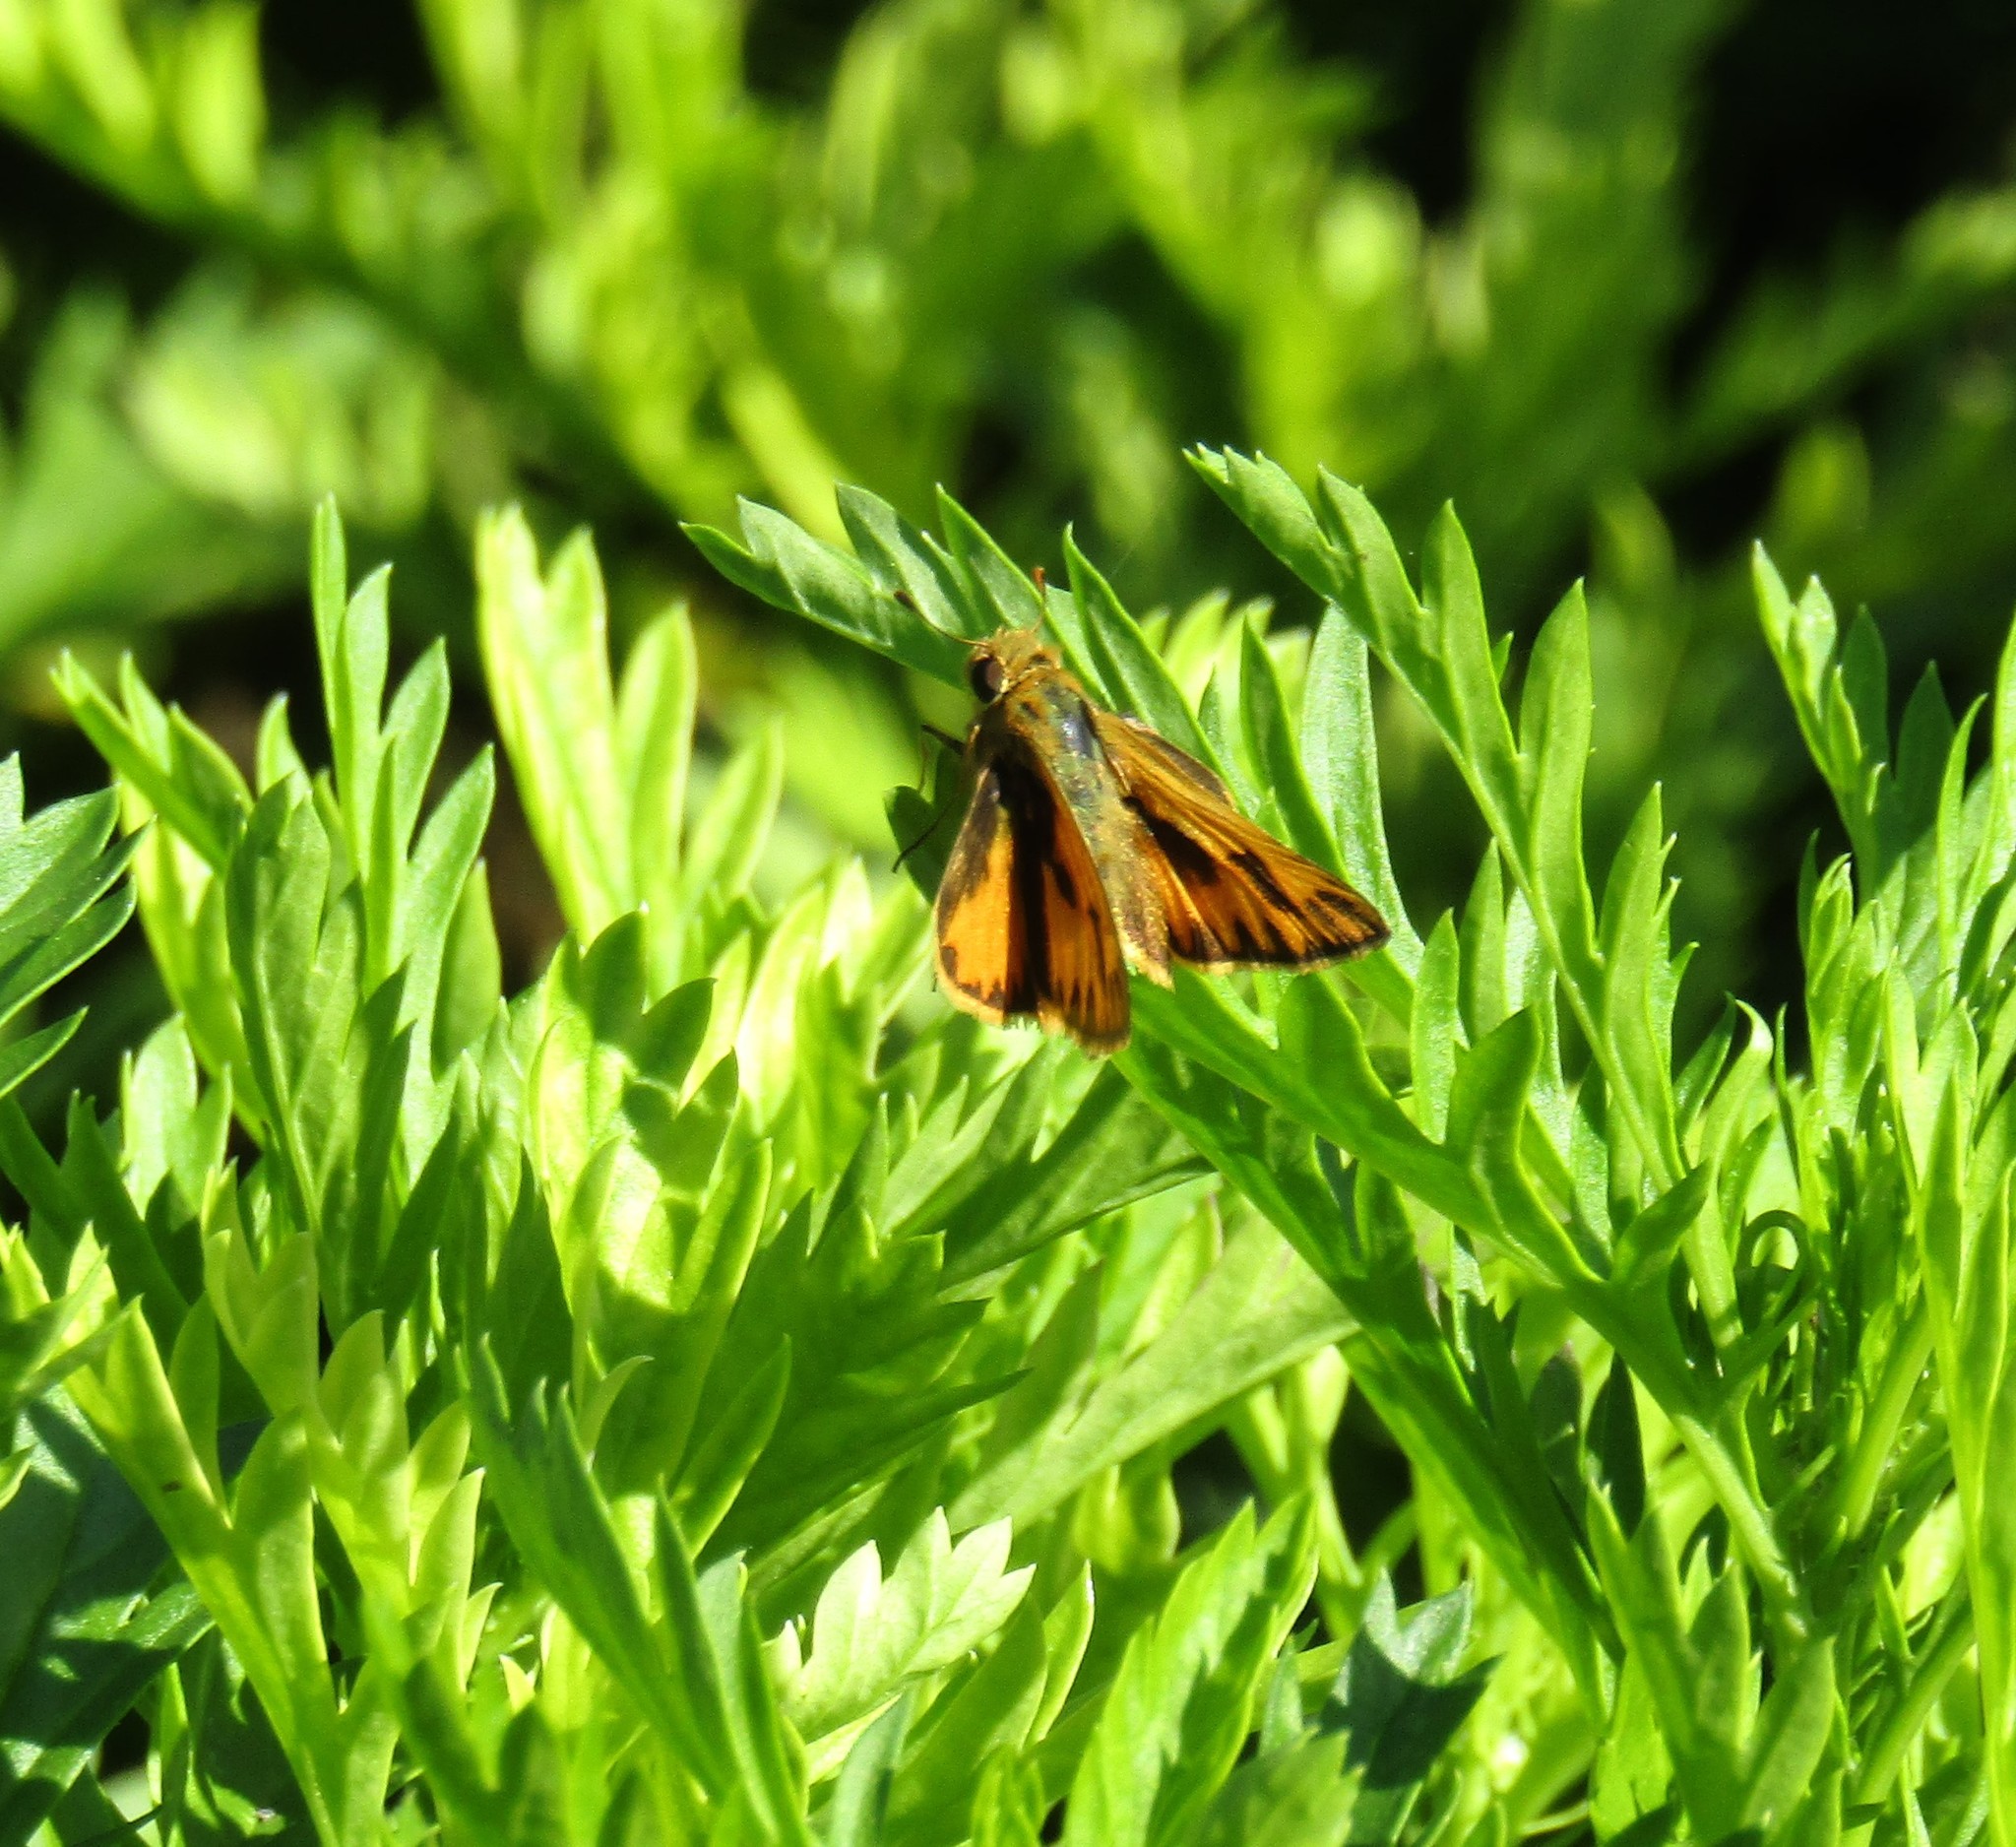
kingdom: Animalia
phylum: Arthropoda
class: Insecta
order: Lepidoptera
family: Hesperiidae
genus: Hylephila
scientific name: Hylephila phyleus
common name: Fiery skipper
